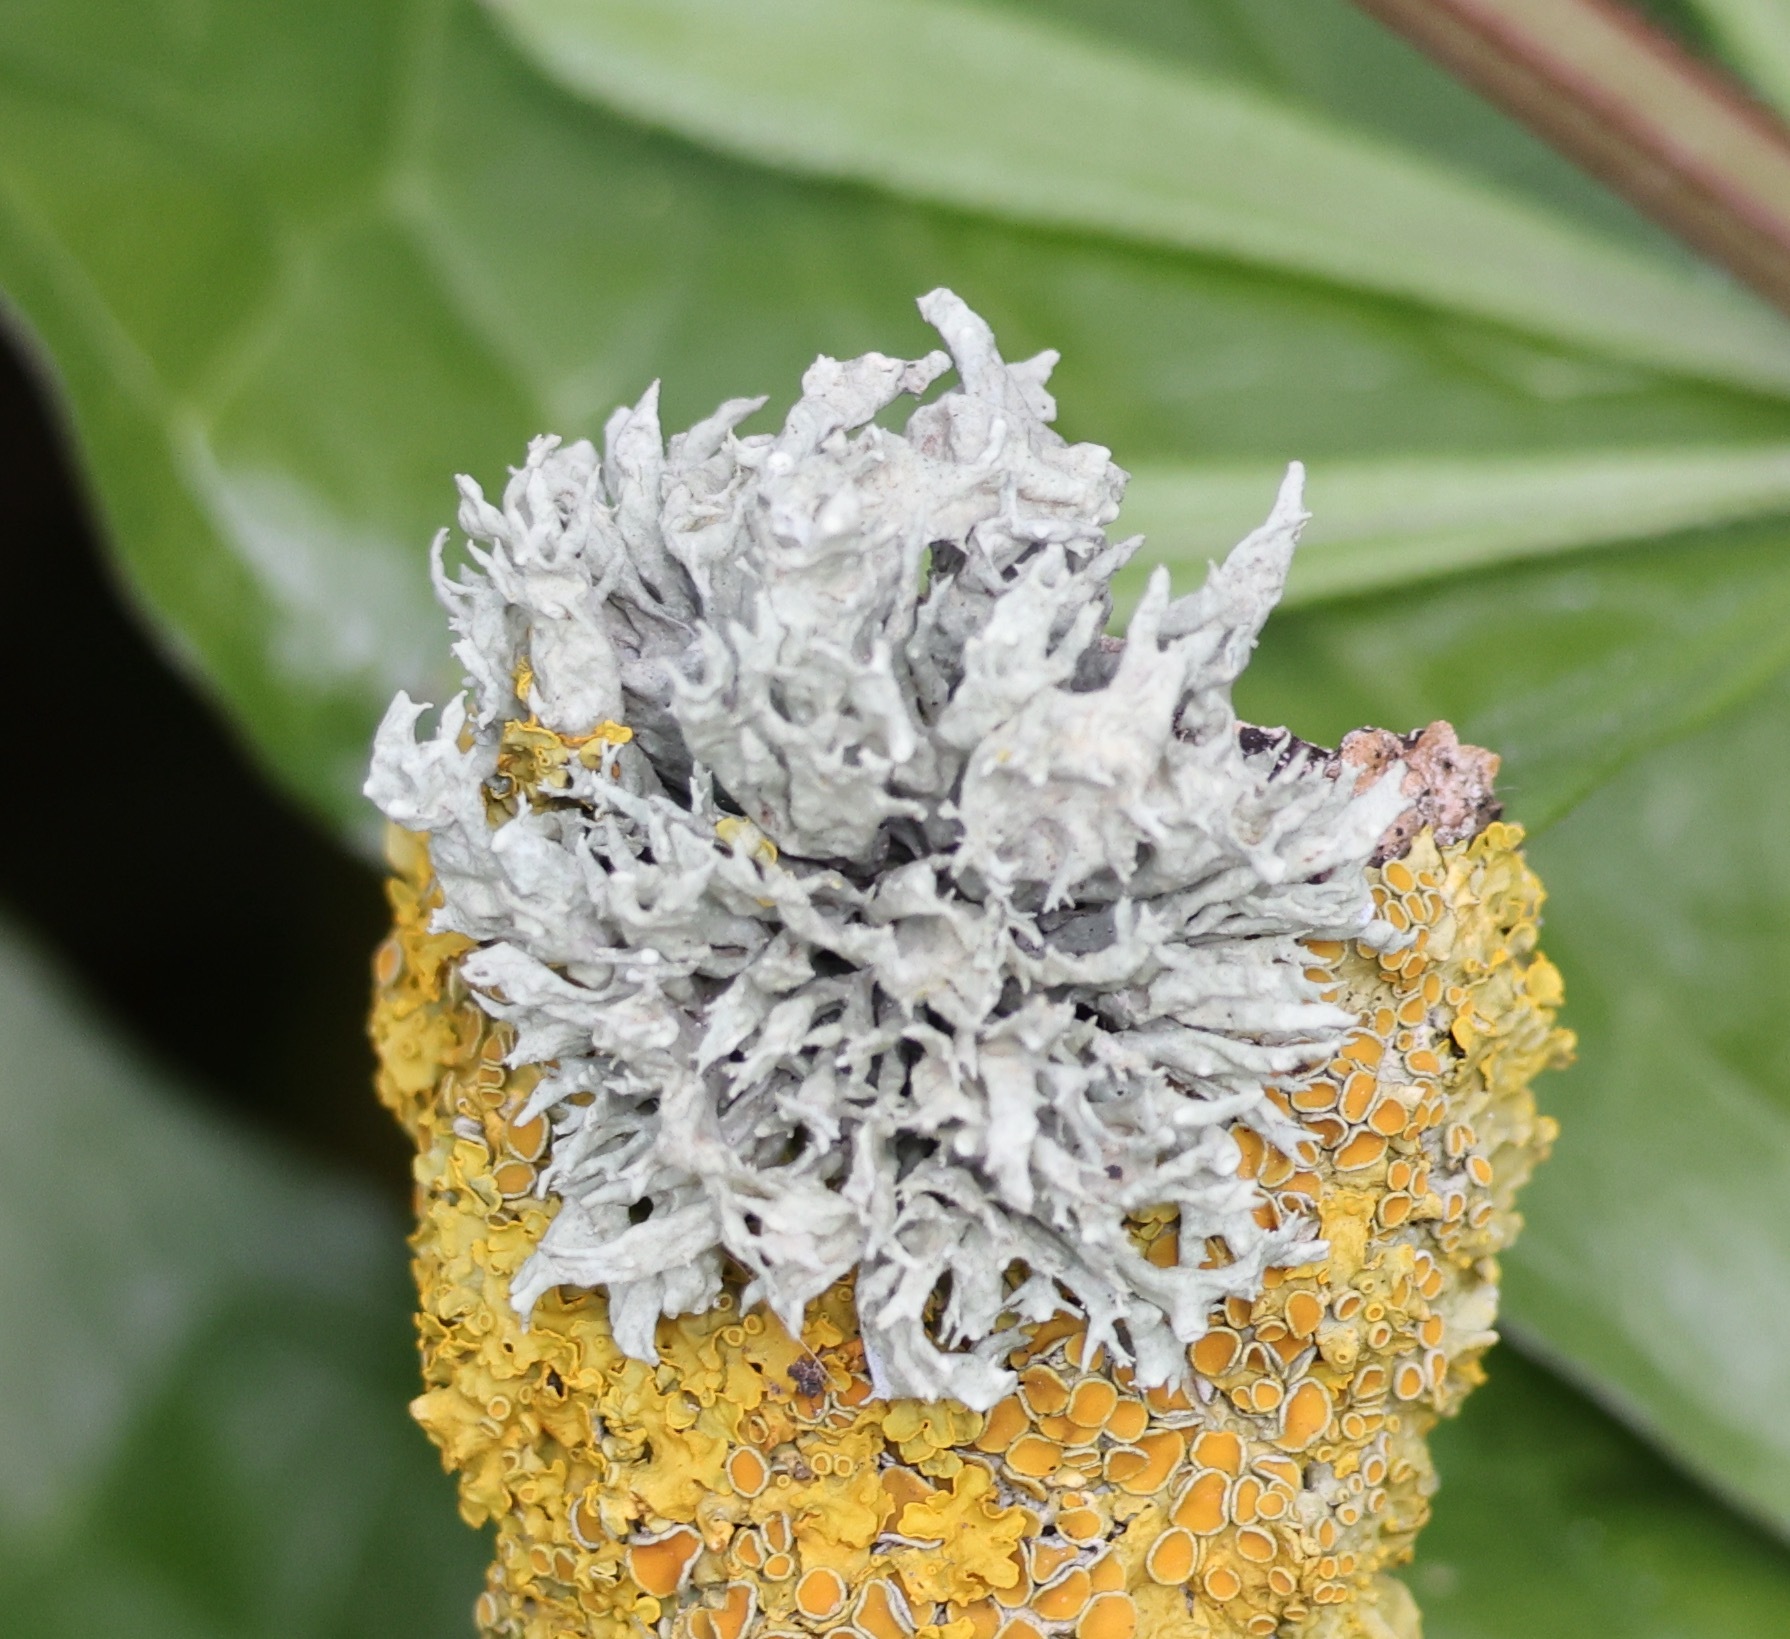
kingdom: Fungi
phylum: Ascomycota
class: Lecanoromycetes
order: Lecanorales
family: Ramalinaceae
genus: Ramalina
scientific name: Ramalina fastigiata
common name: Dotted ribbon lichen
